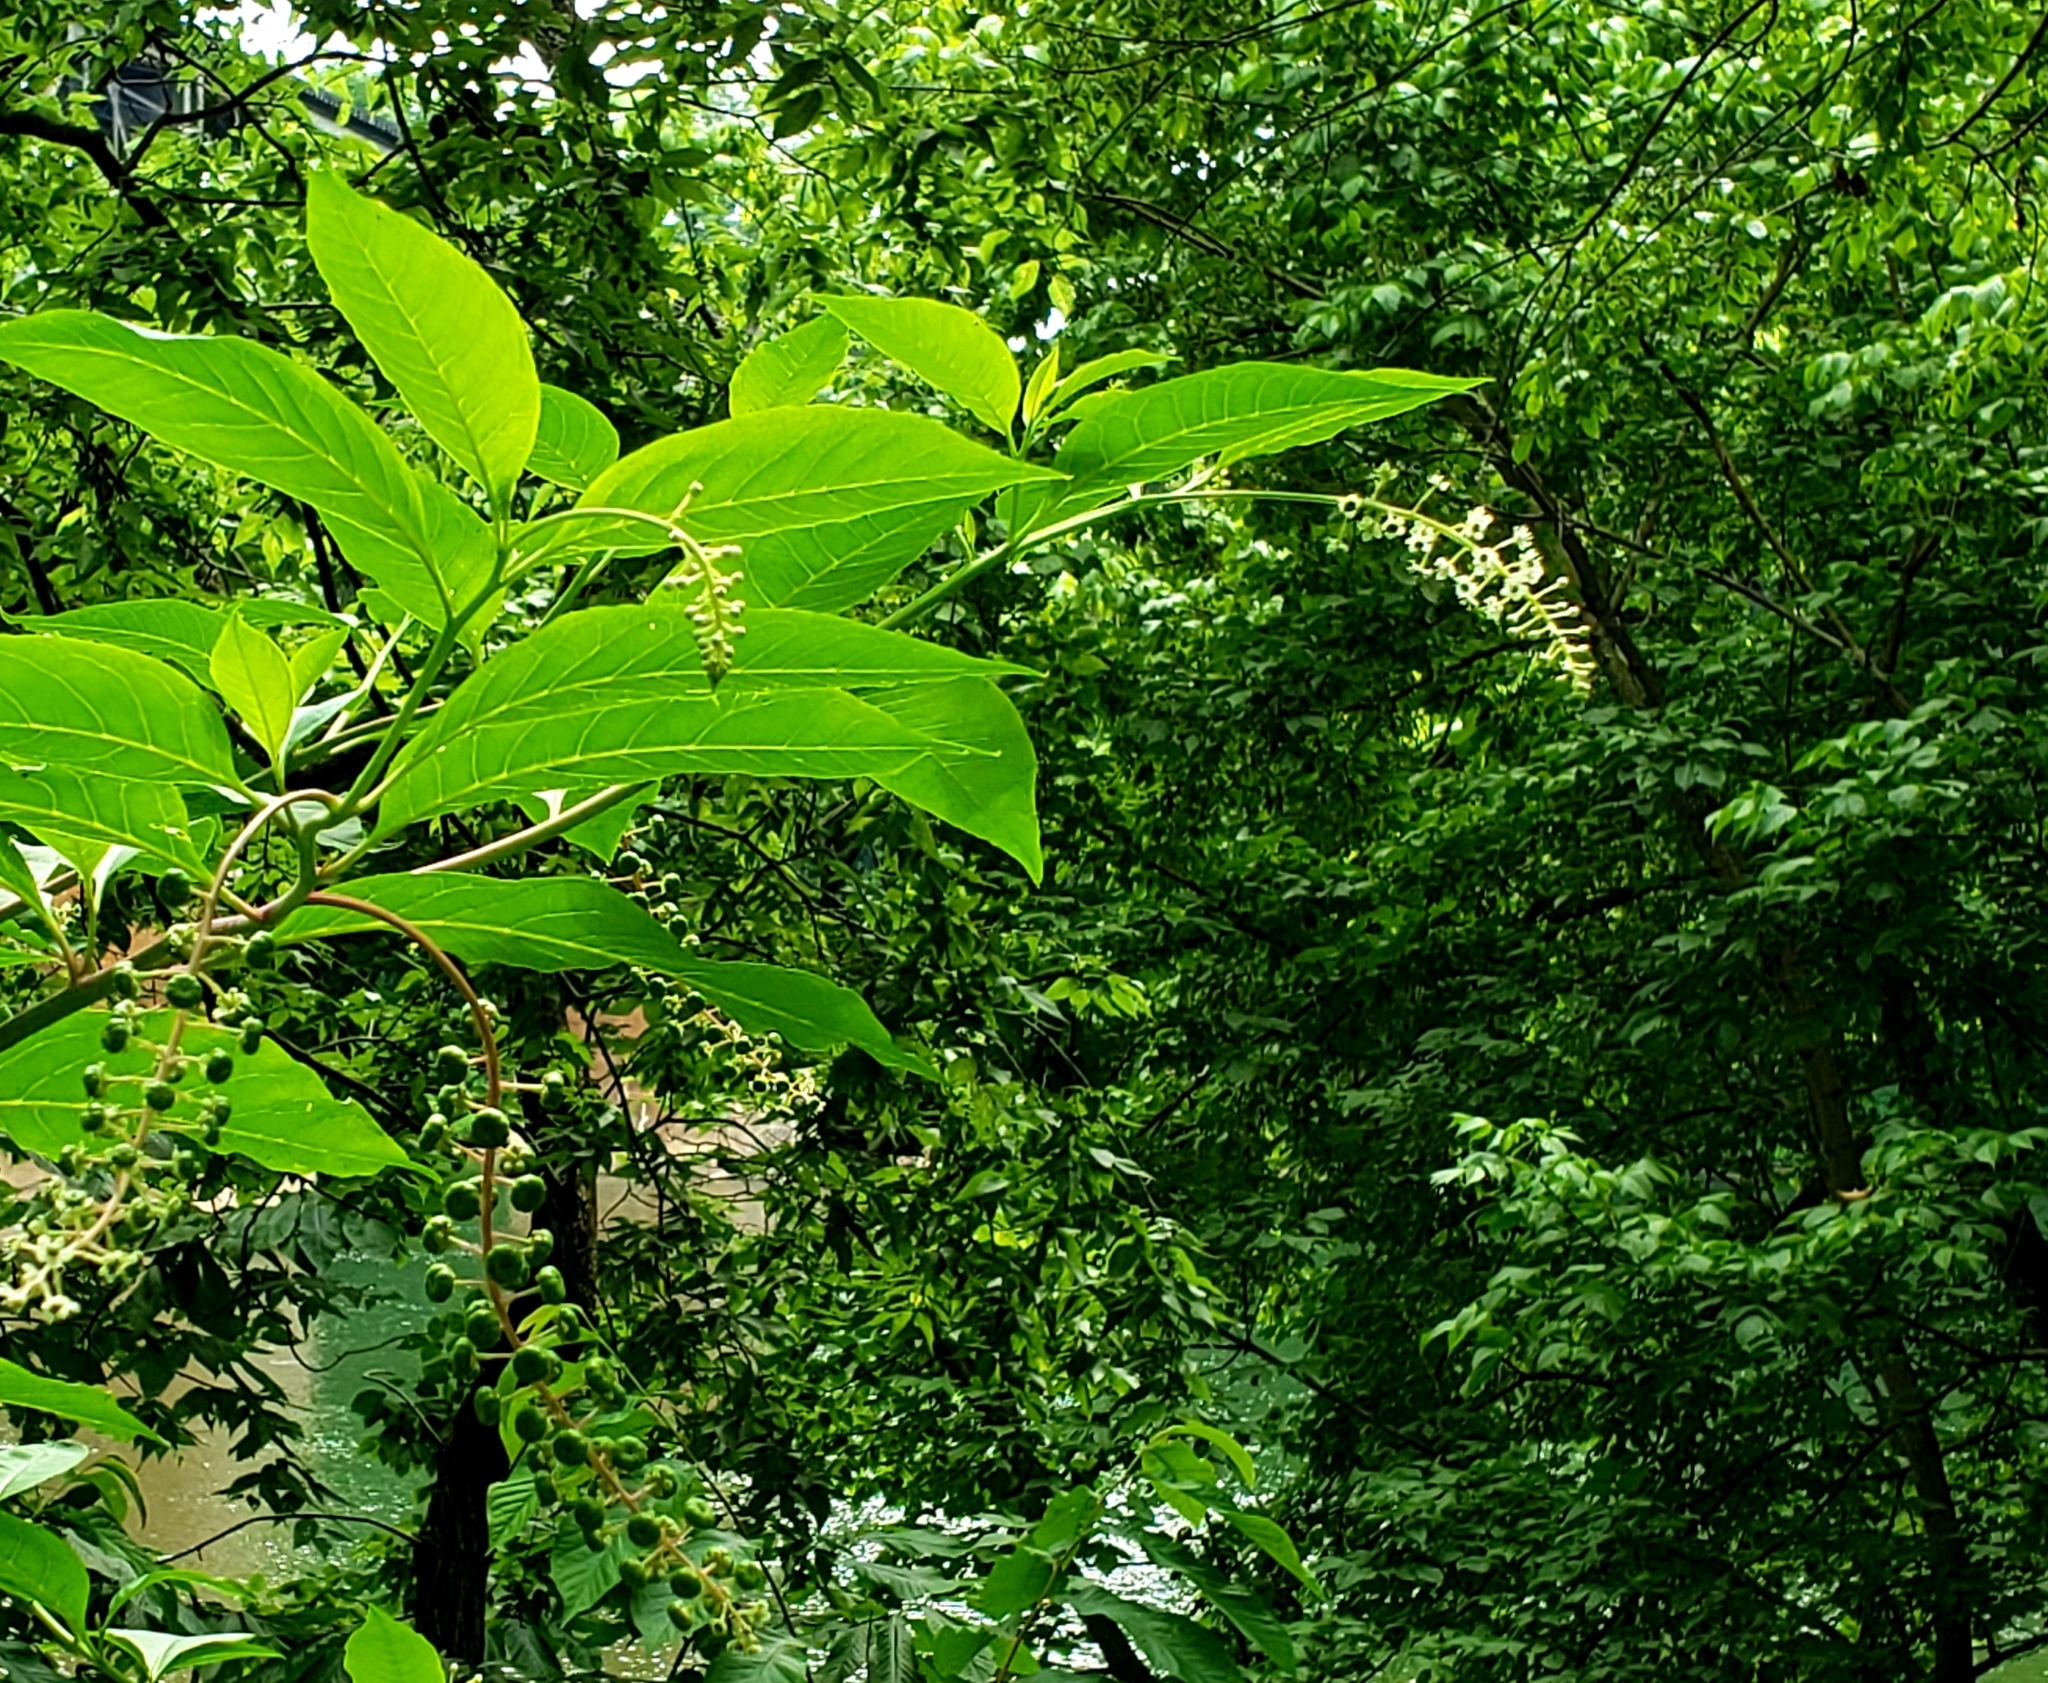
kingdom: Plantae
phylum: Tracheophyta
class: Magnoliopsida
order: Caryophyllales
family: Phytolaccaceae
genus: Phytolacca
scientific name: Phytolacca americana
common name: American pokeweed
